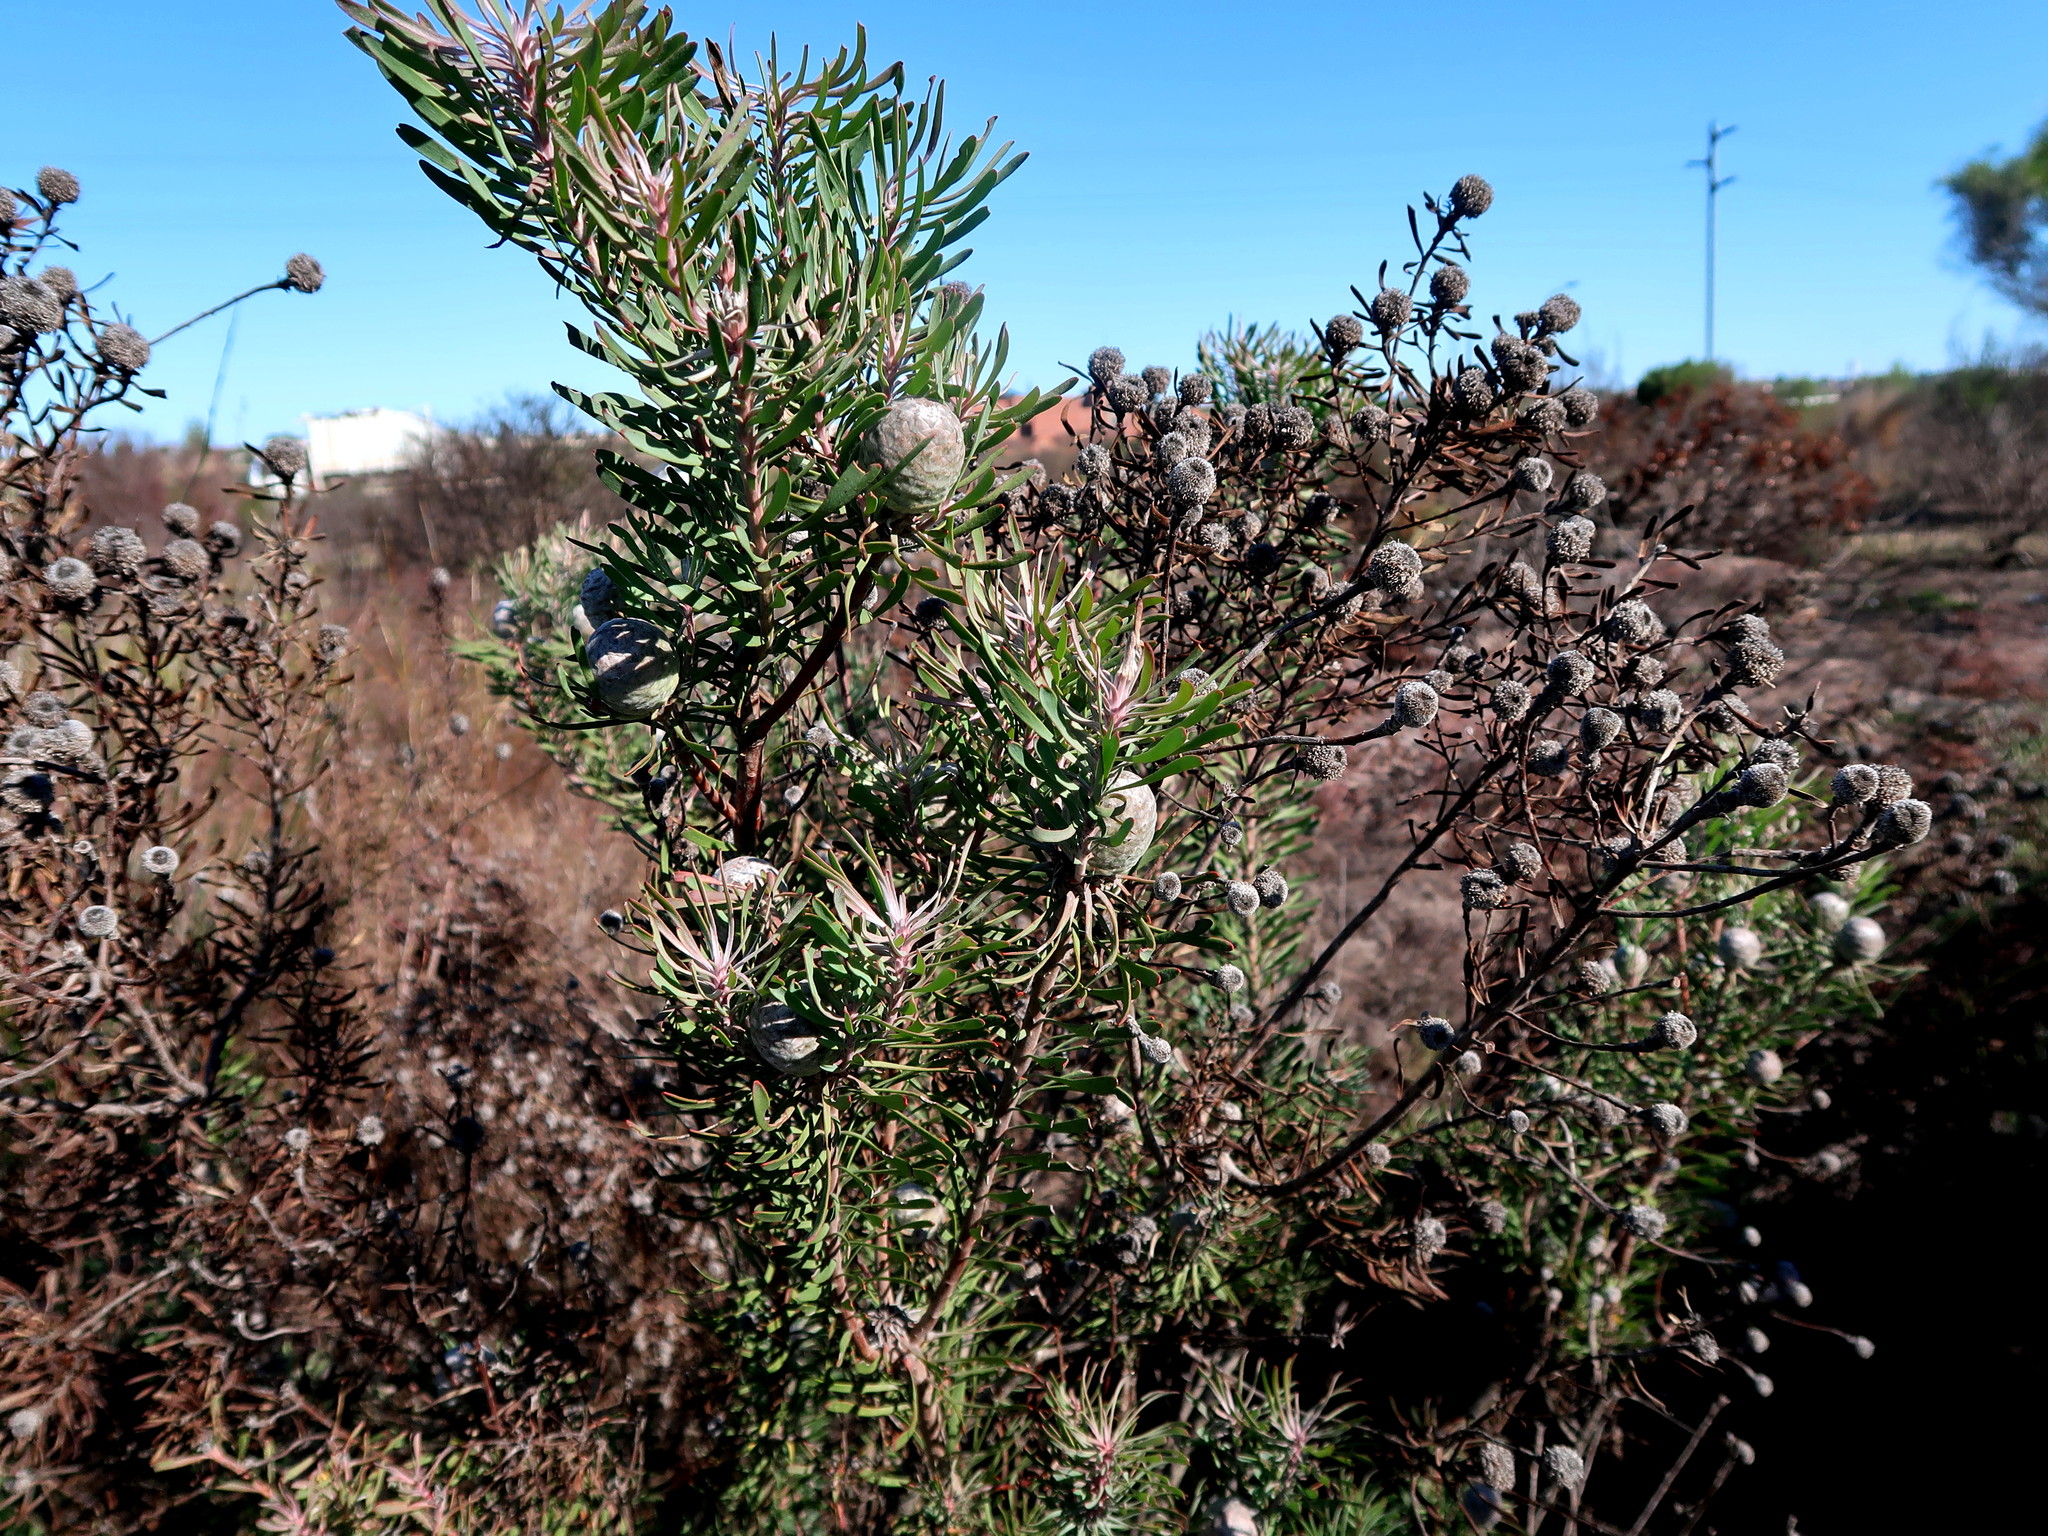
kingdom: Plantae
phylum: Tracheophyta
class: Magnoliopsida
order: Proteales
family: Proteaceae
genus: Leucadendron
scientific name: Leucadendron galpinii
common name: Hairless conebush
